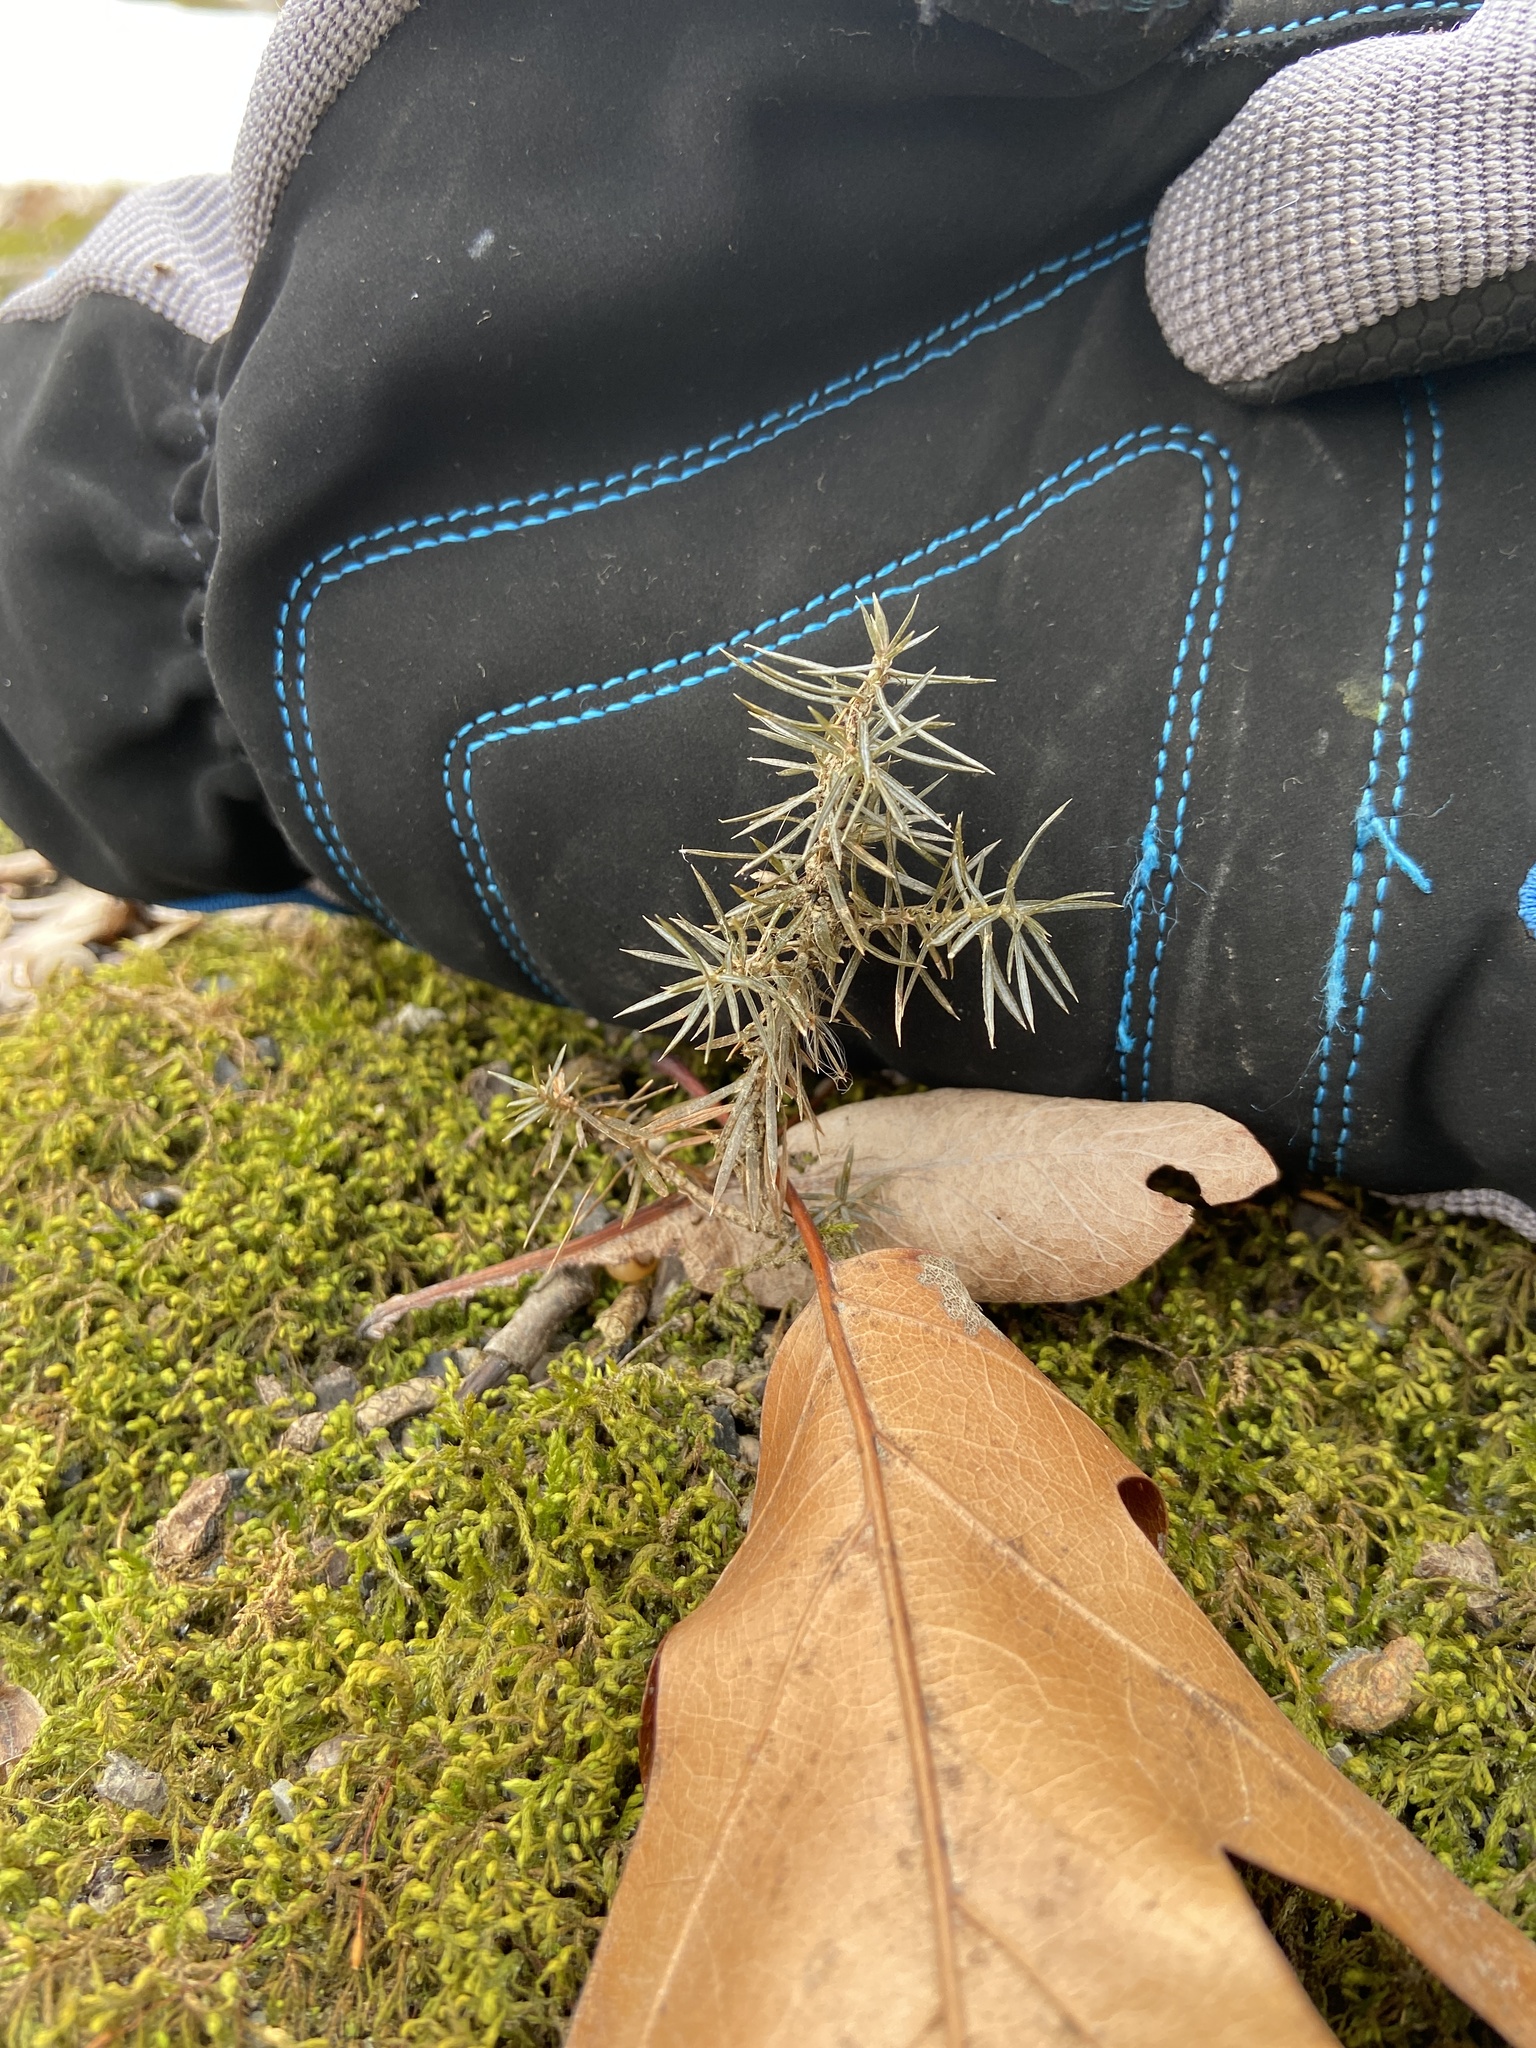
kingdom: Plantae
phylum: Tracheophyta
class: Pinopsida
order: Pinales
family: Cupressaceae
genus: Juniperus
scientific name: Juniperus virginiana
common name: Red juniper
